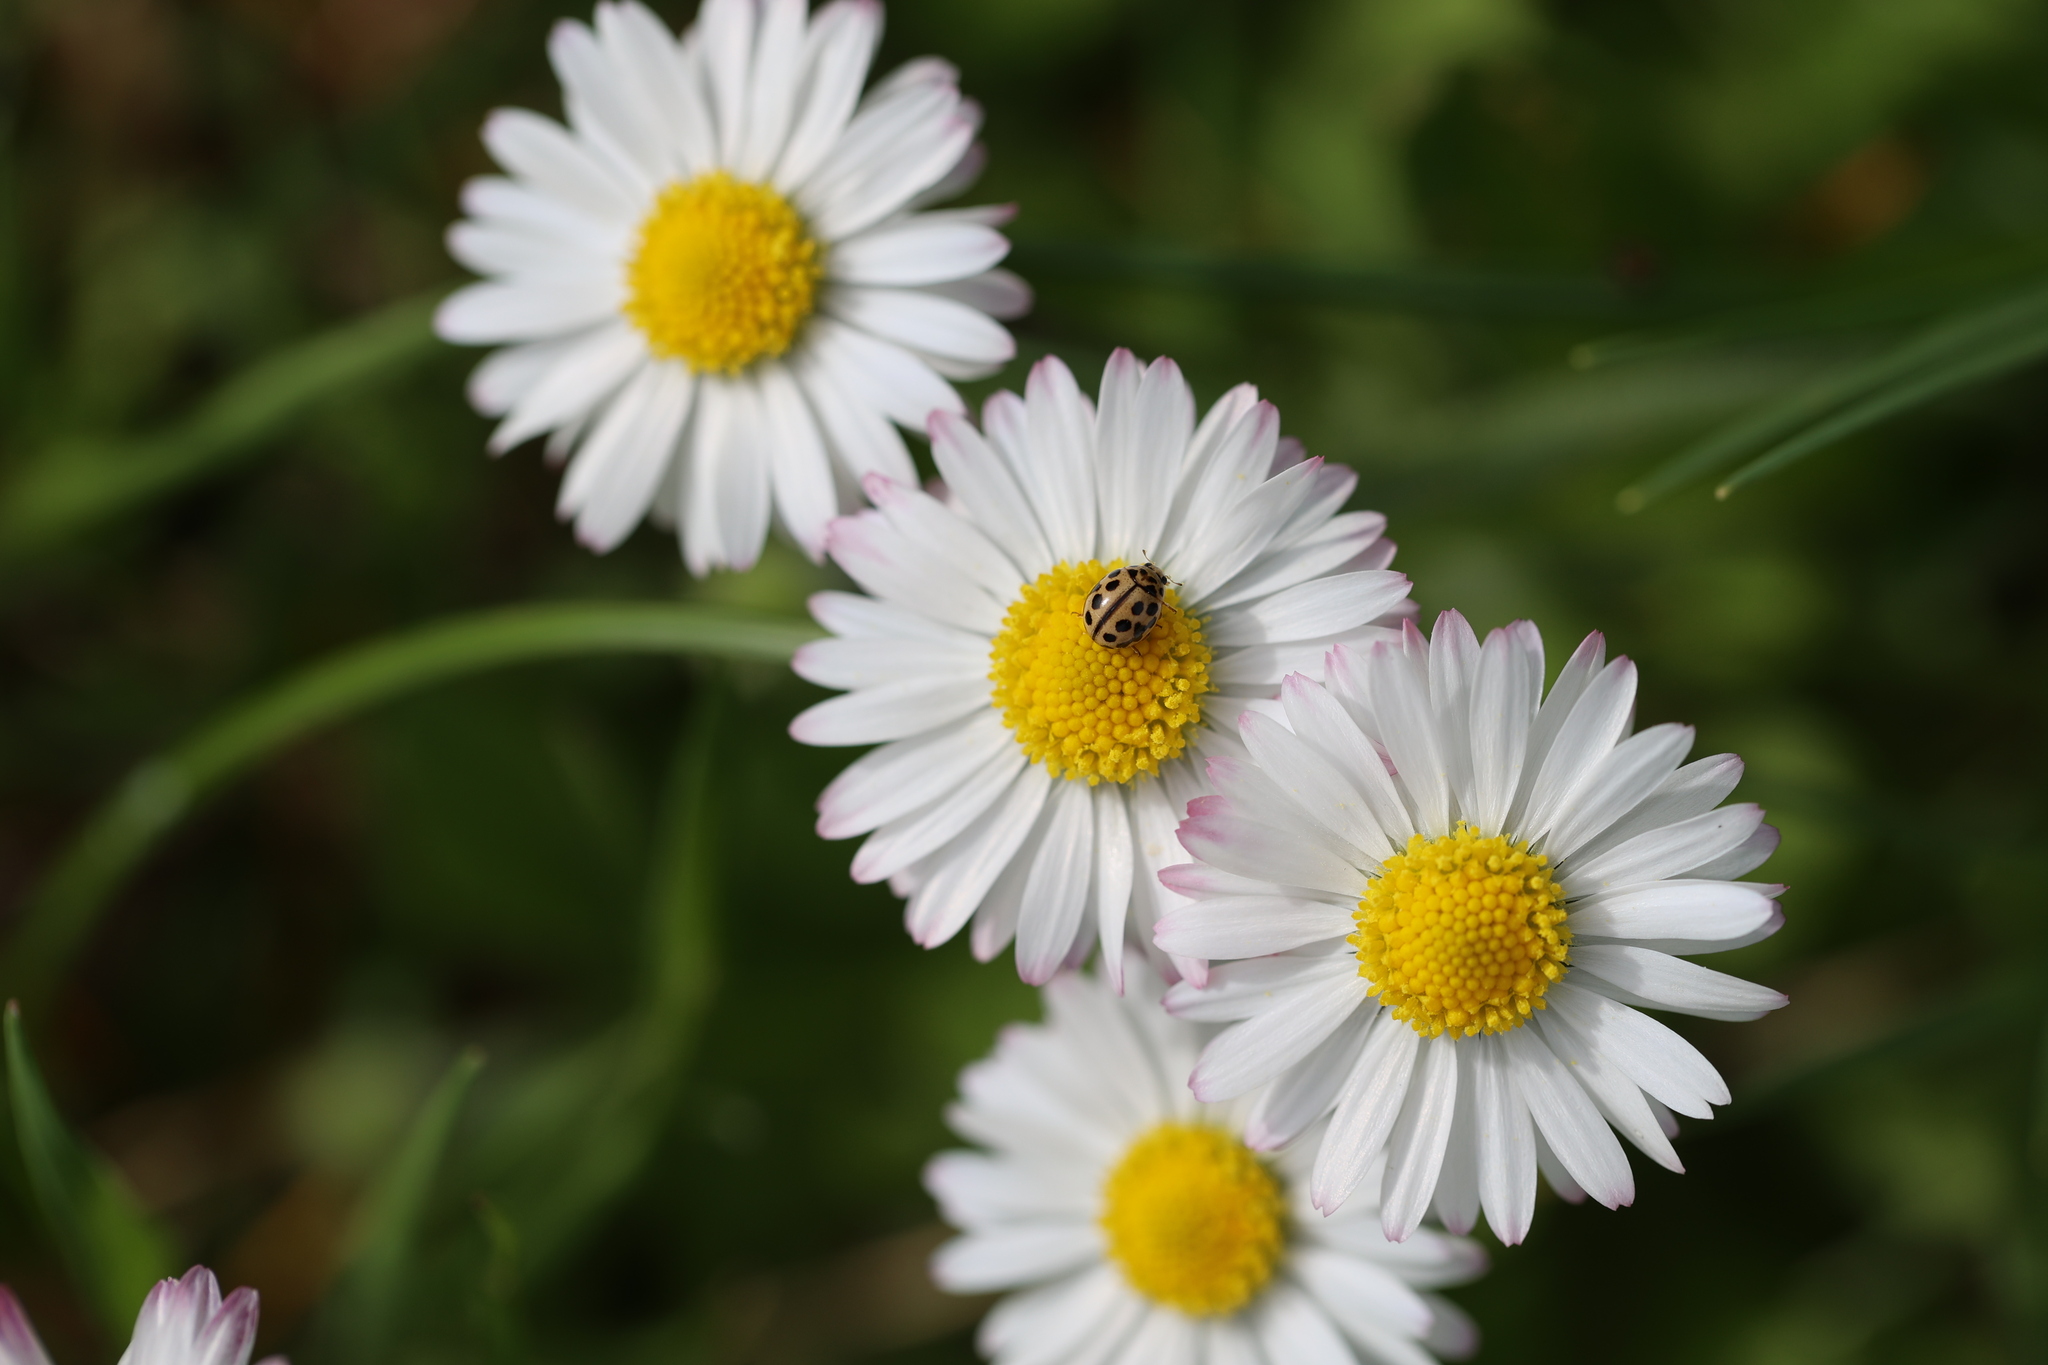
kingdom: Animalia
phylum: Arthropoda
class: Insecta
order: Coleoptera
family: Coccinellidae
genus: Tytthaspis
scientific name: Tytthaspis sedecimpunctata
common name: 16-spot ladybird
